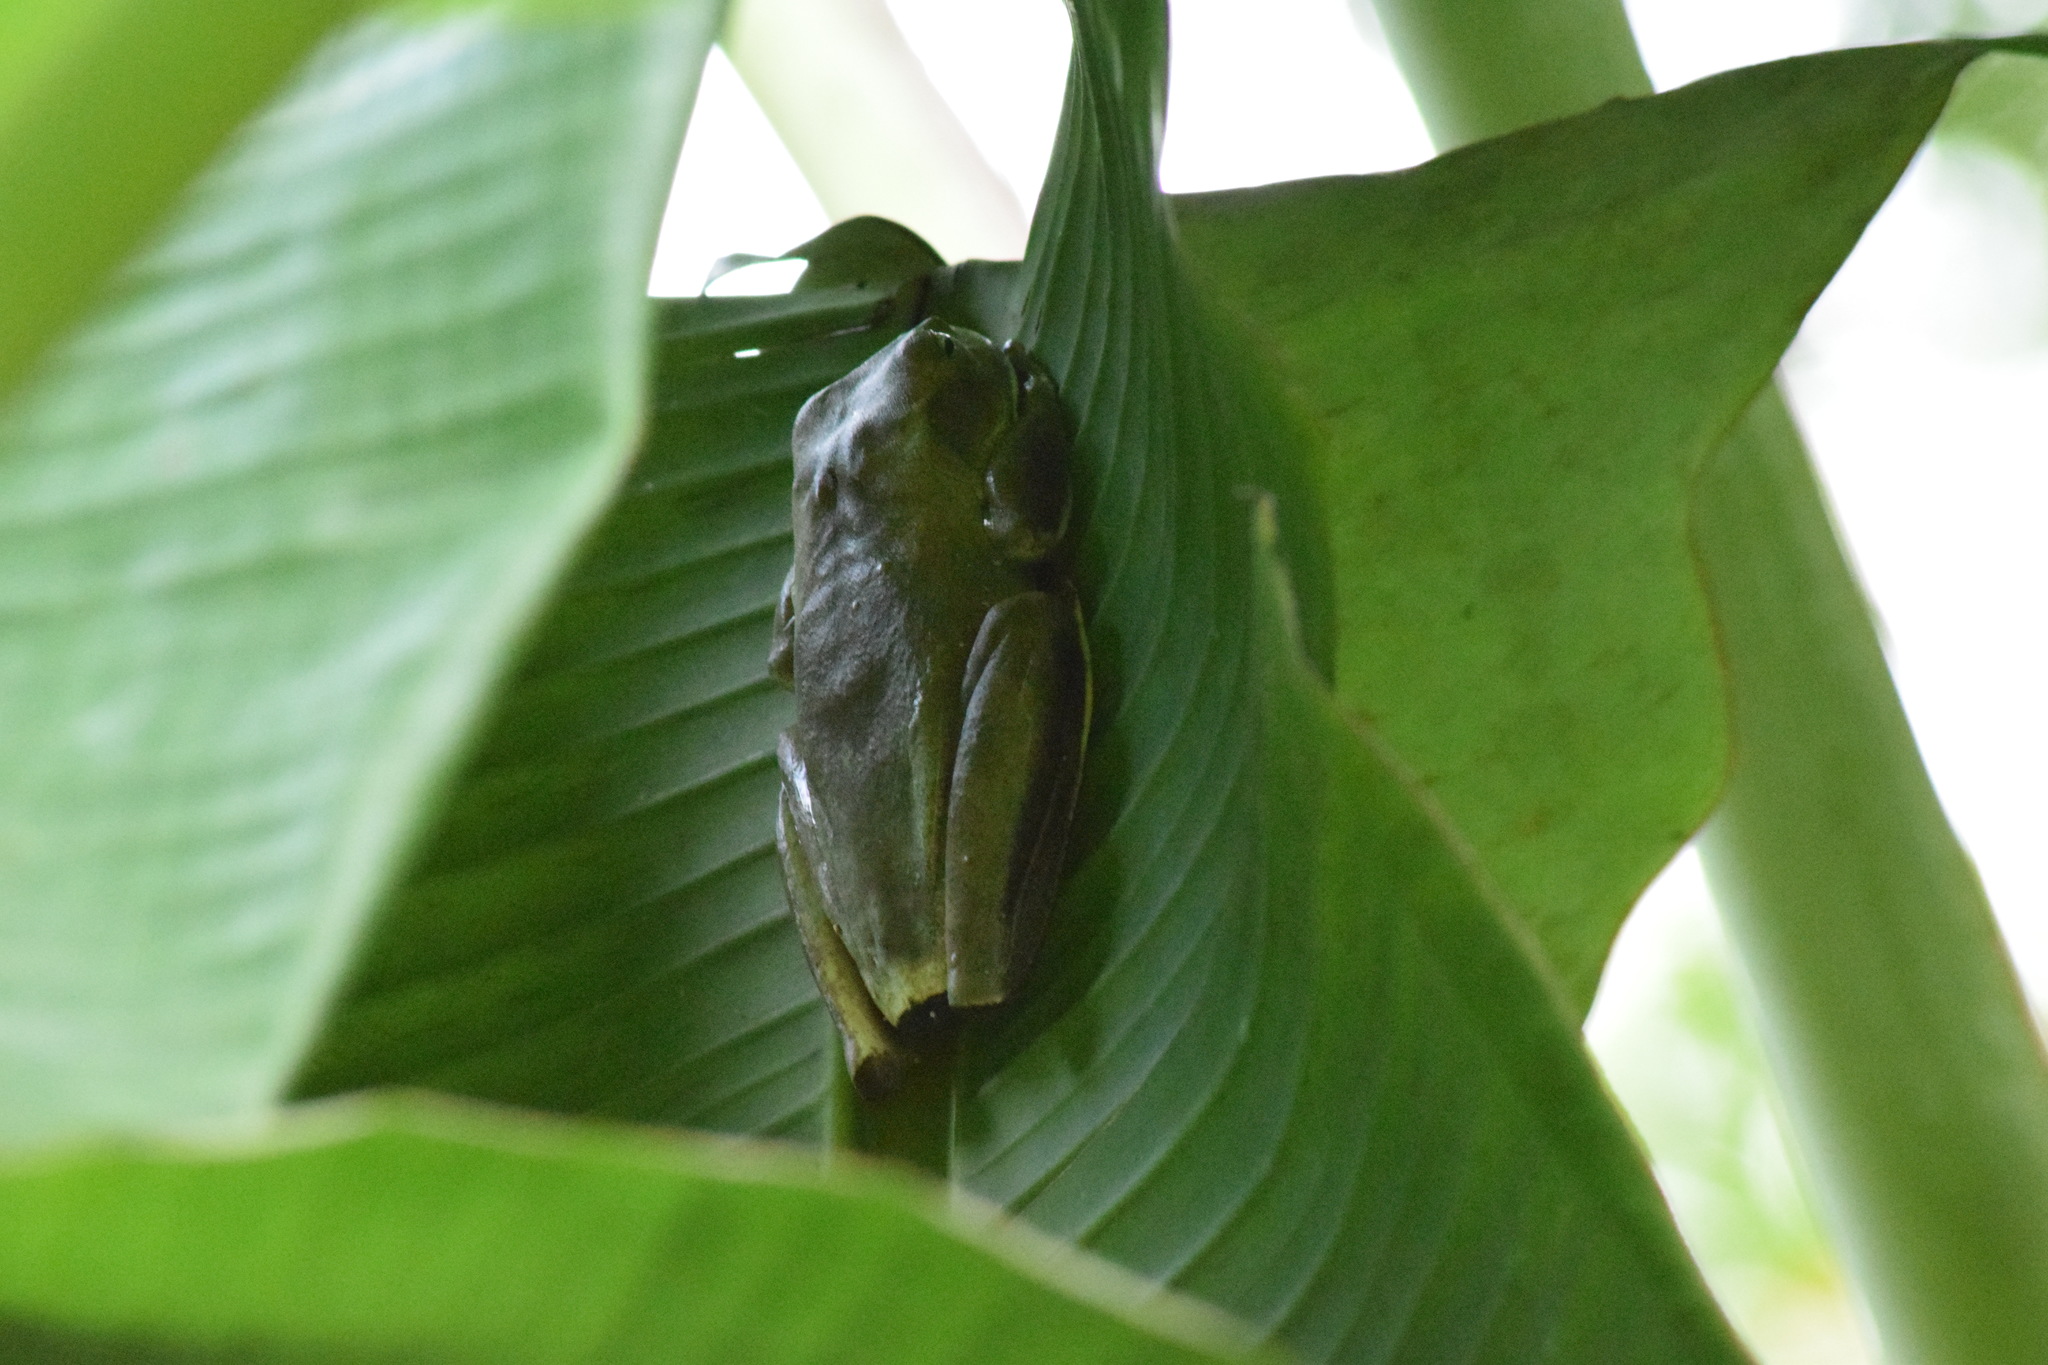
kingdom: Animalia
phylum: Chordata
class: Amphibia
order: Anura
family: Hylidae
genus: Boana
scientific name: Boana faber
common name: Blacksmith tree frog
